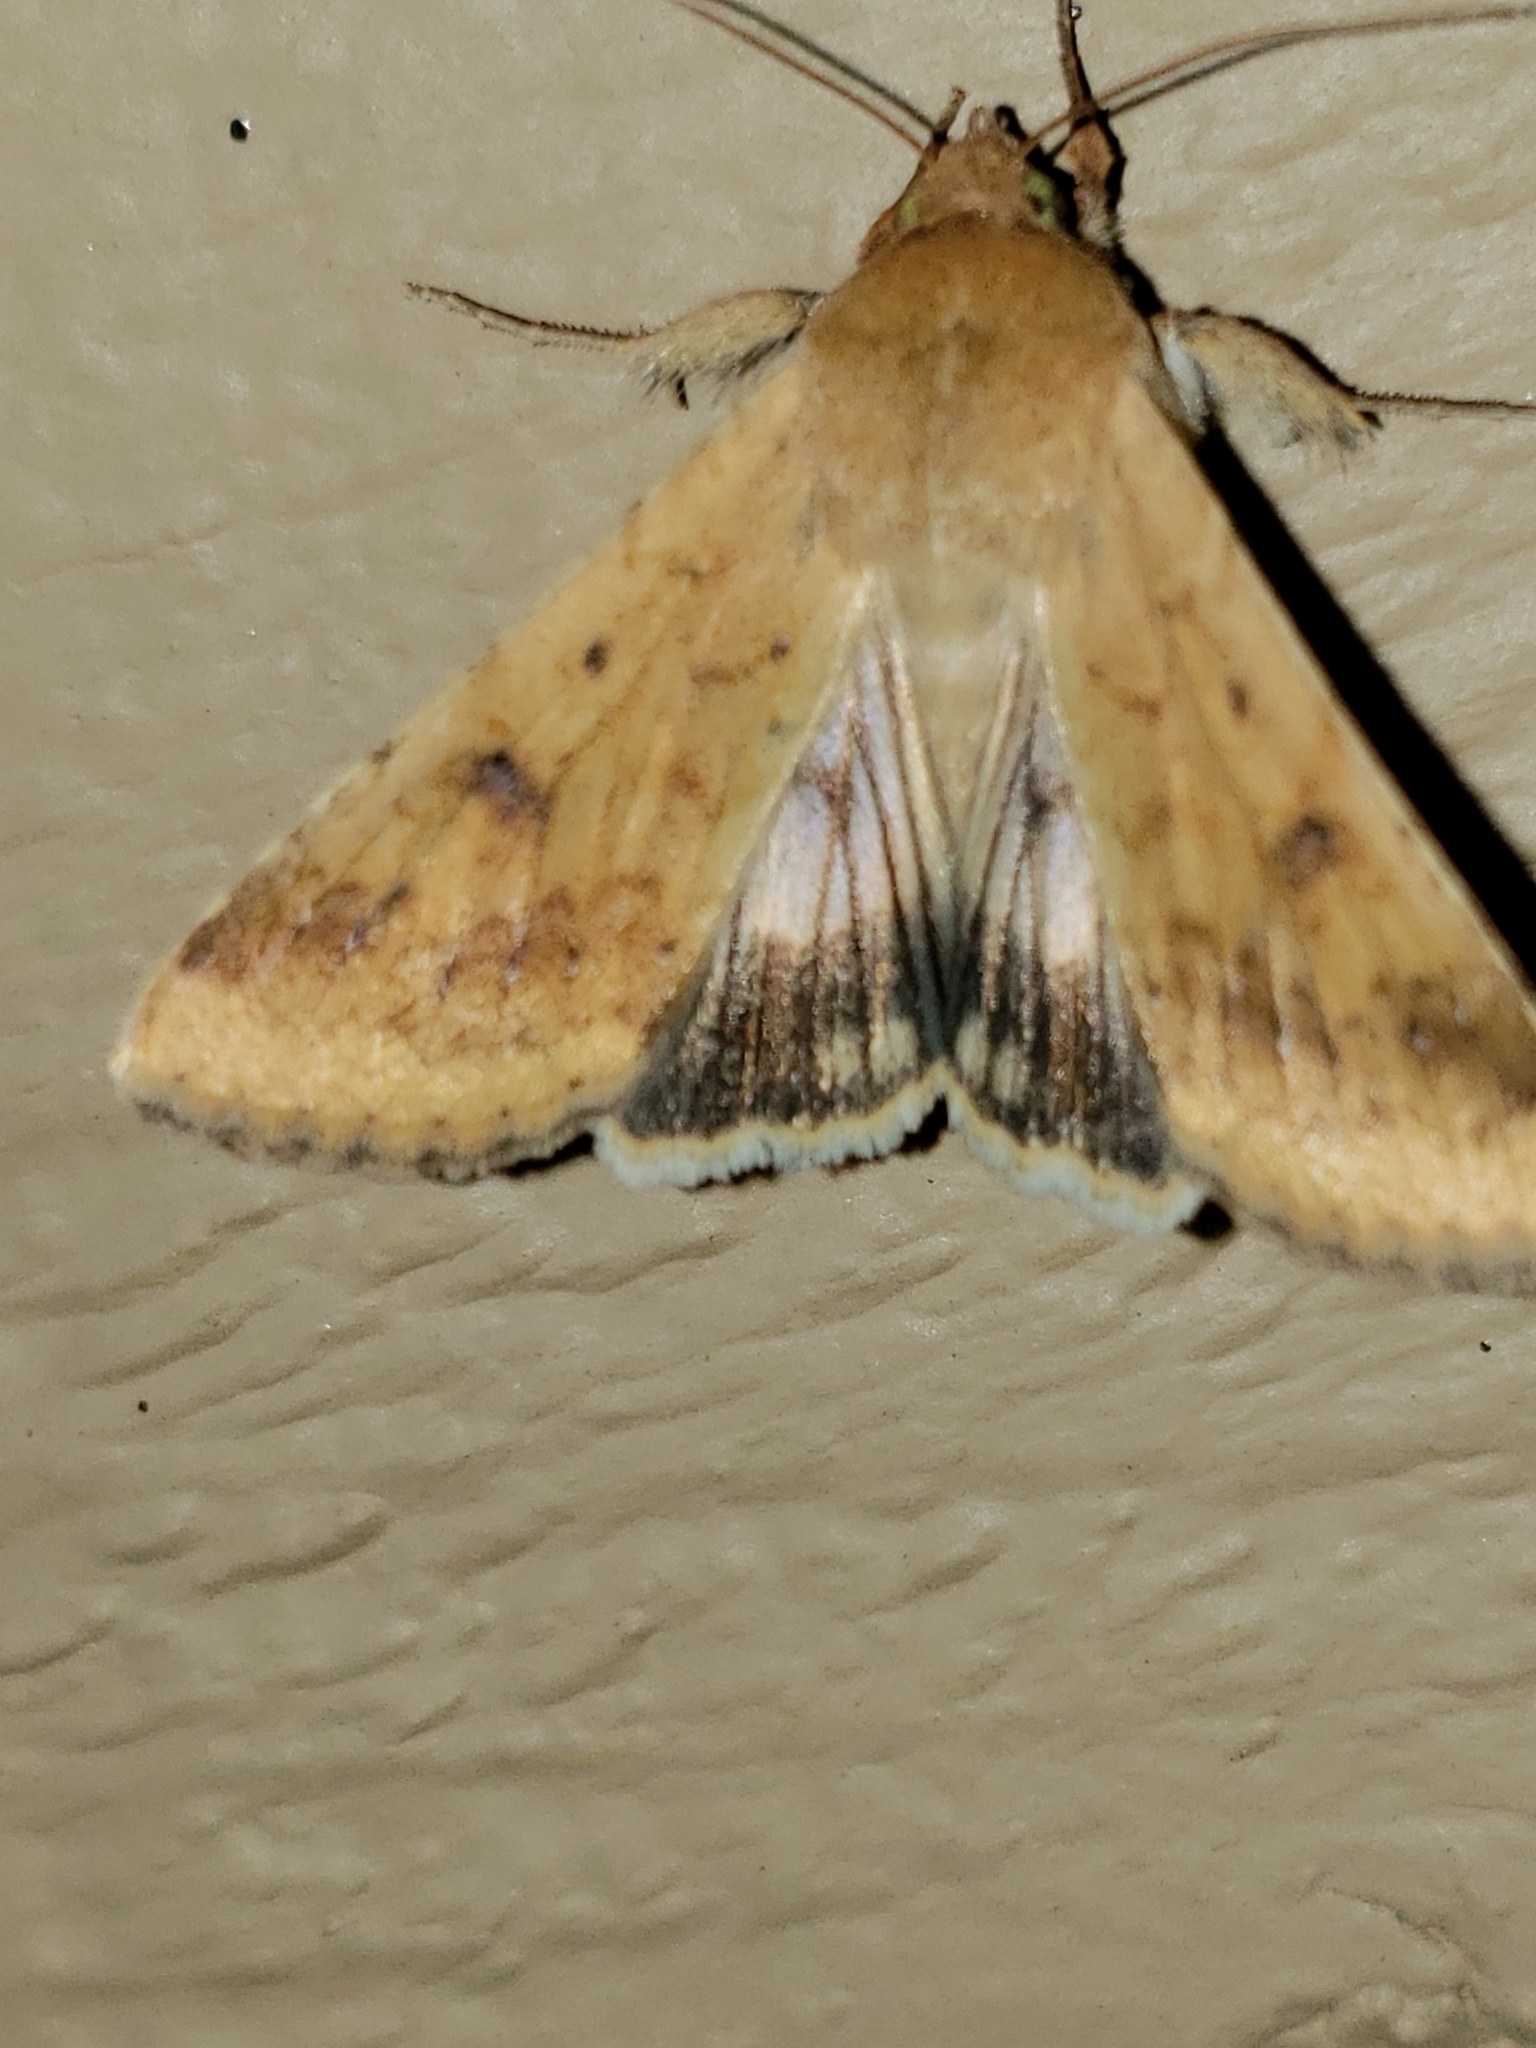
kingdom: Animalia
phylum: Arthropoda
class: Insecta
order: Lepidoptera
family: Noctuidae
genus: Helicoverpa
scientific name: Helicoverpa zea
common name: Bollworm
